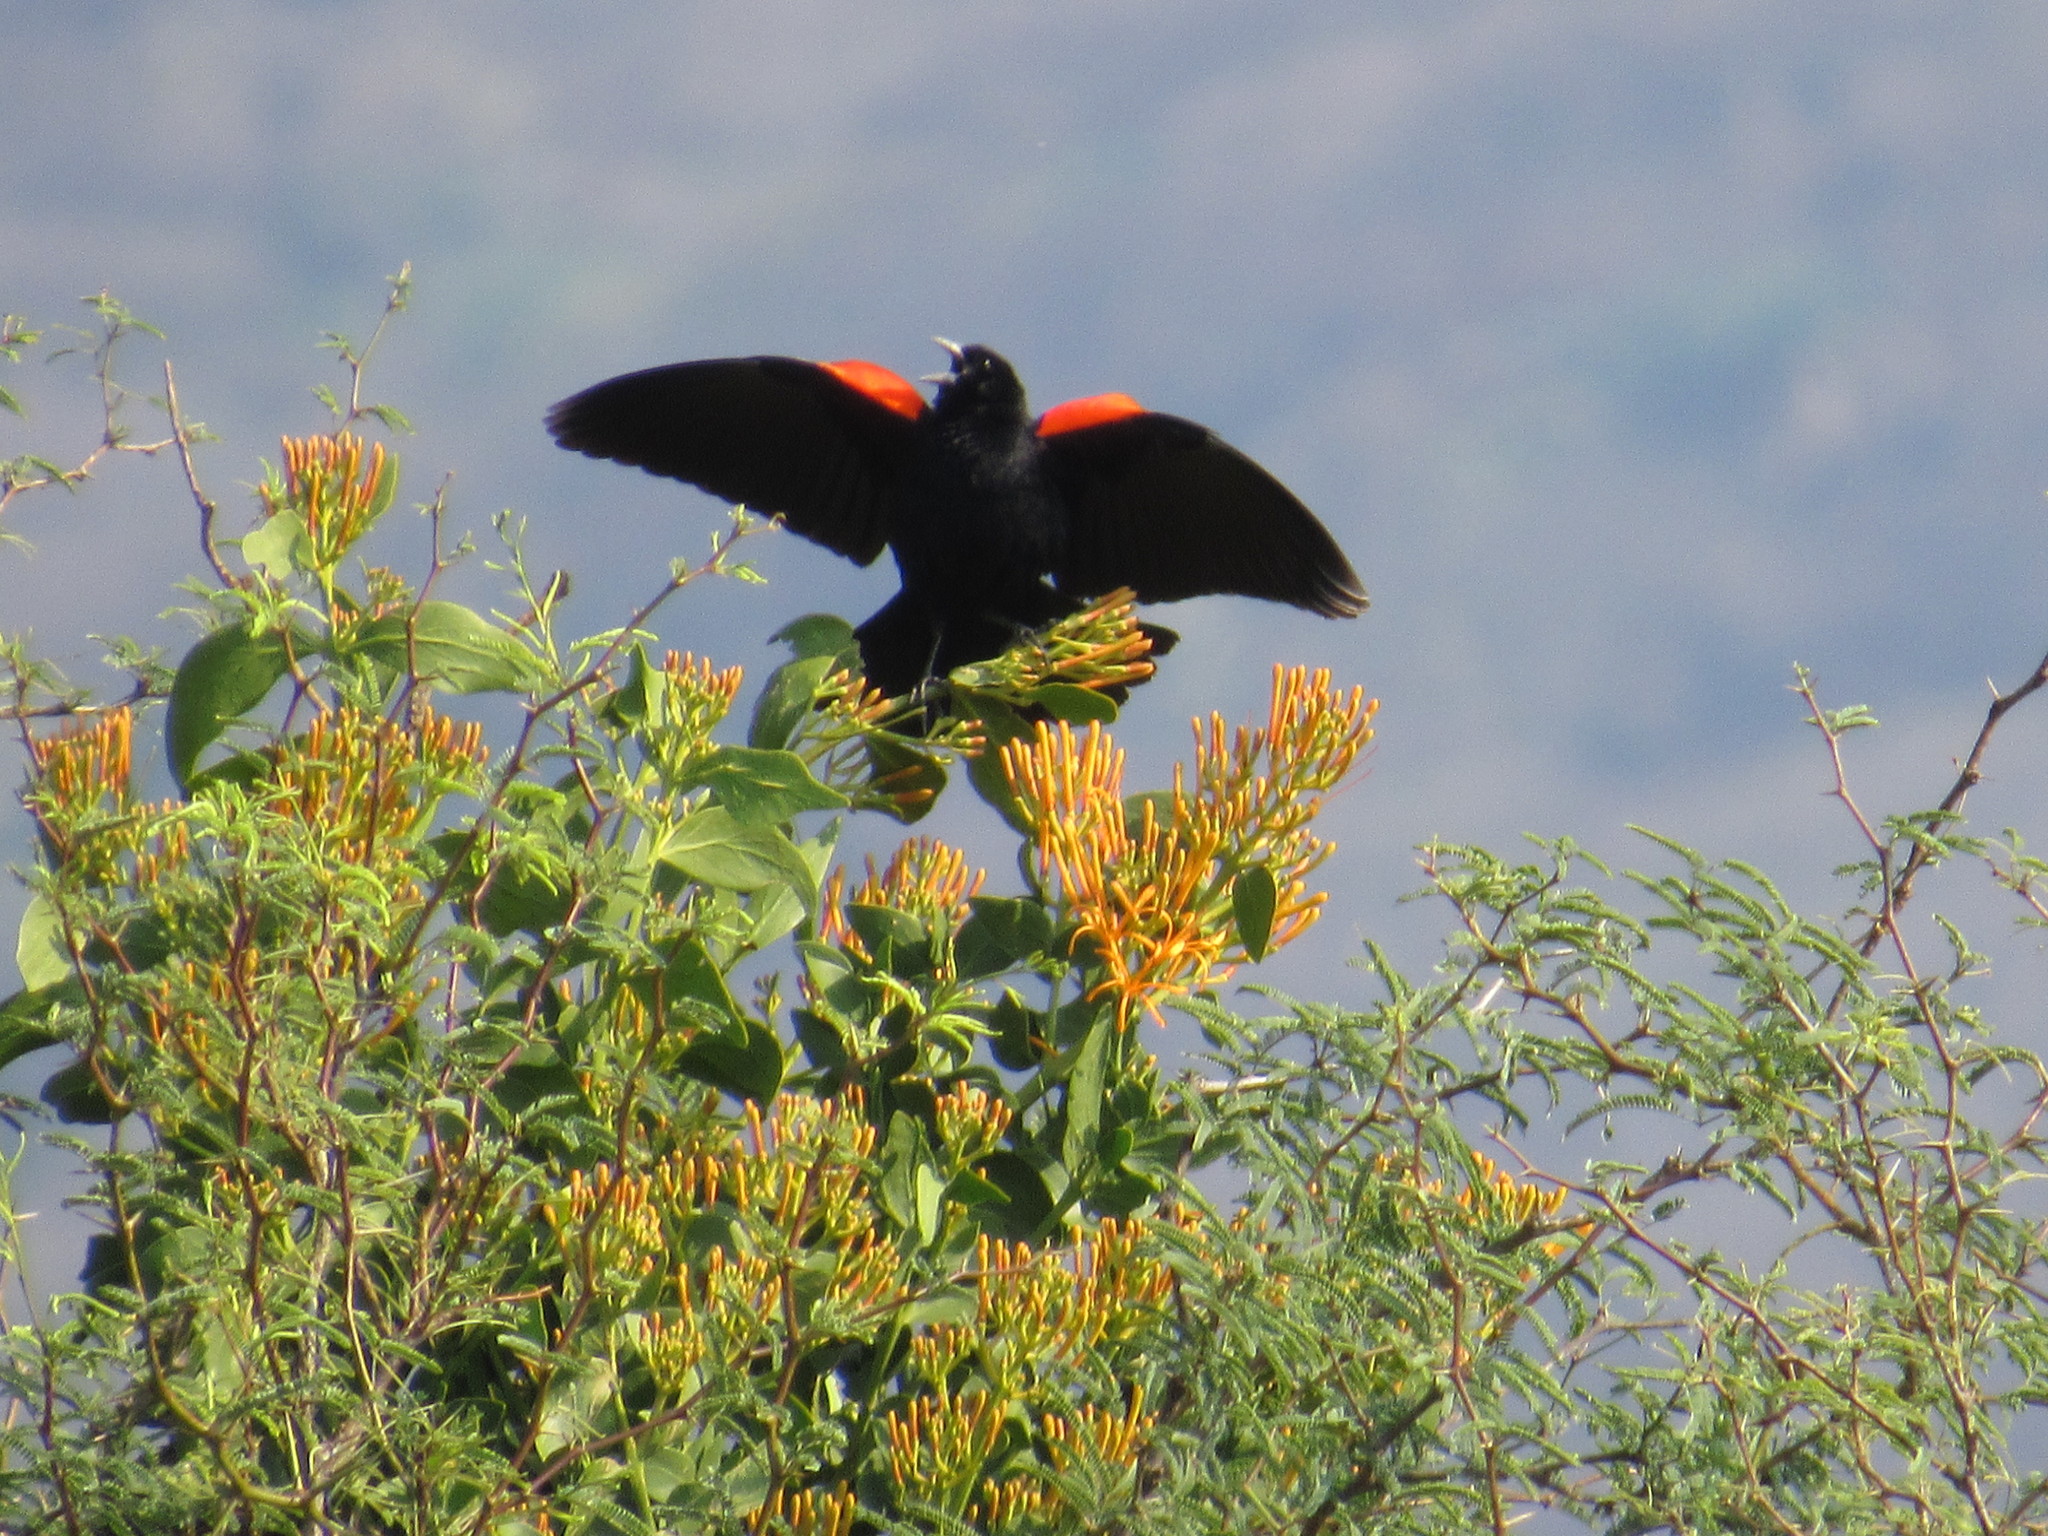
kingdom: Animalia
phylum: Chordata
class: Aves
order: Passeriformes
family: Icteridae
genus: Agelaius
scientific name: Agelaius phoeniceus
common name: Red-winged blackbird
